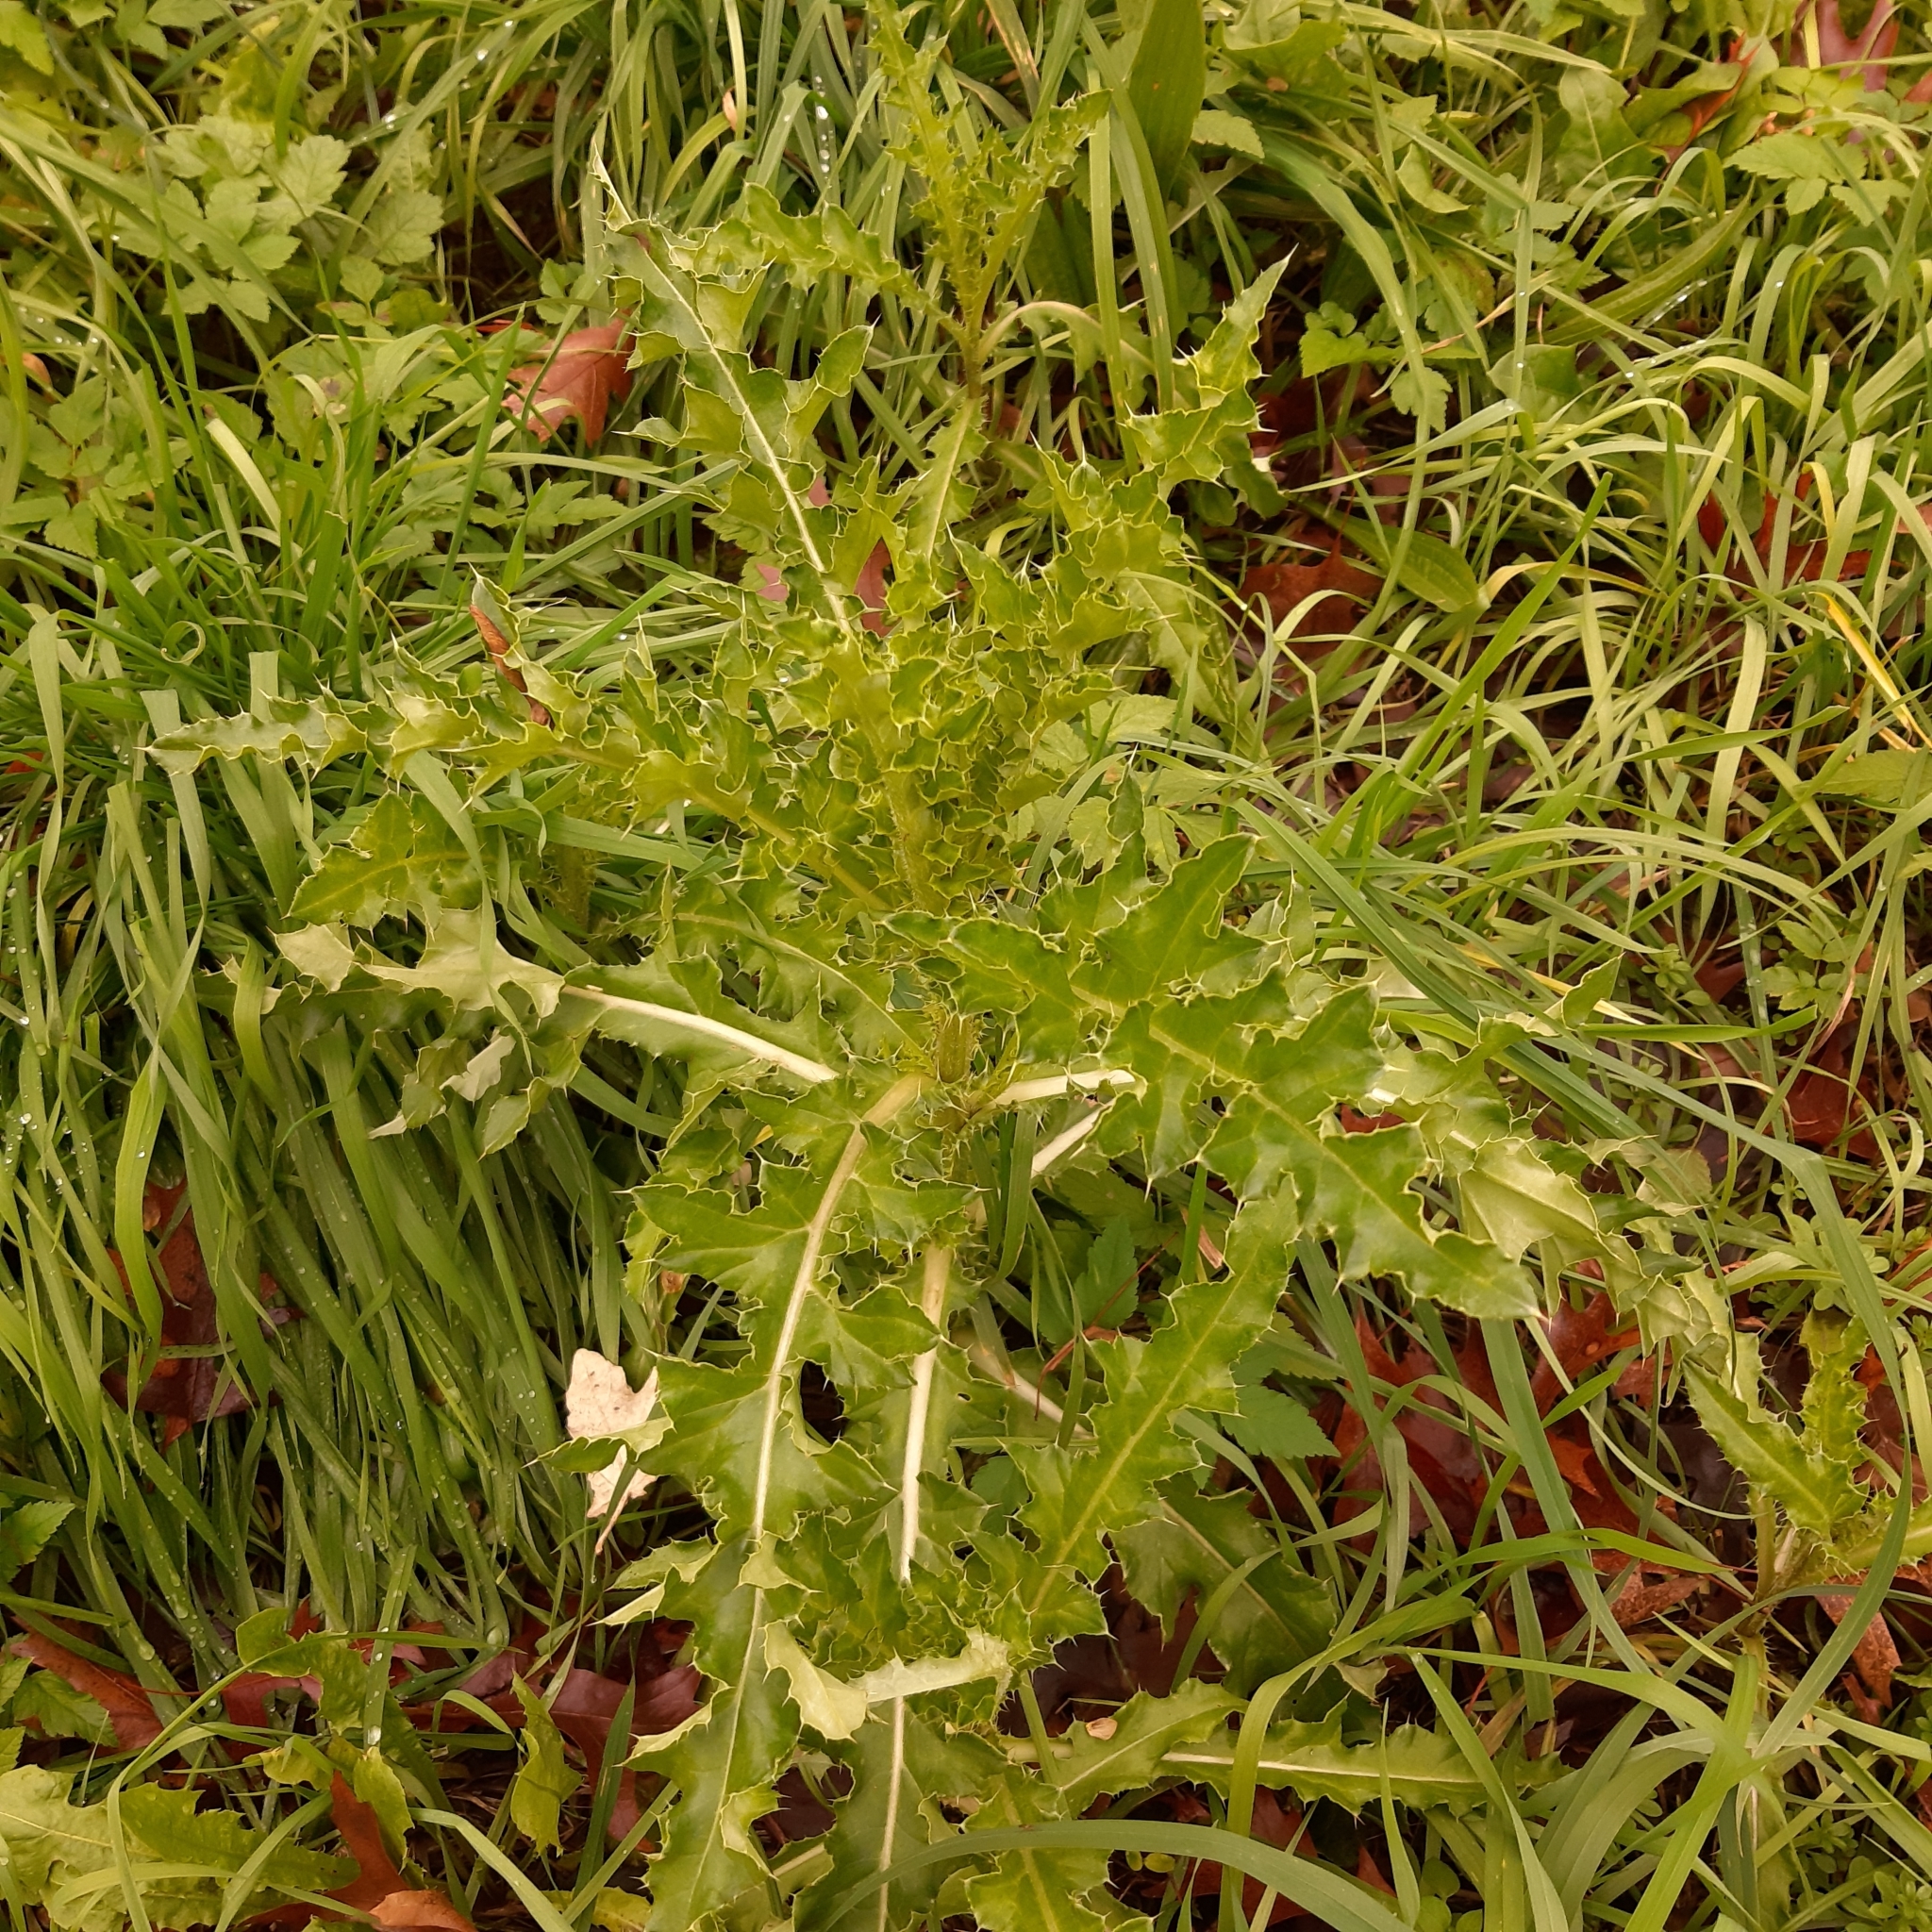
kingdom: Plantae
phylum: Tracheophyta
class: Magnoliopsida
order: Asterales
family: Asteraceae
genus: Cirsium
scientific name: Cirsium arvense
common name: Creeping thistle
